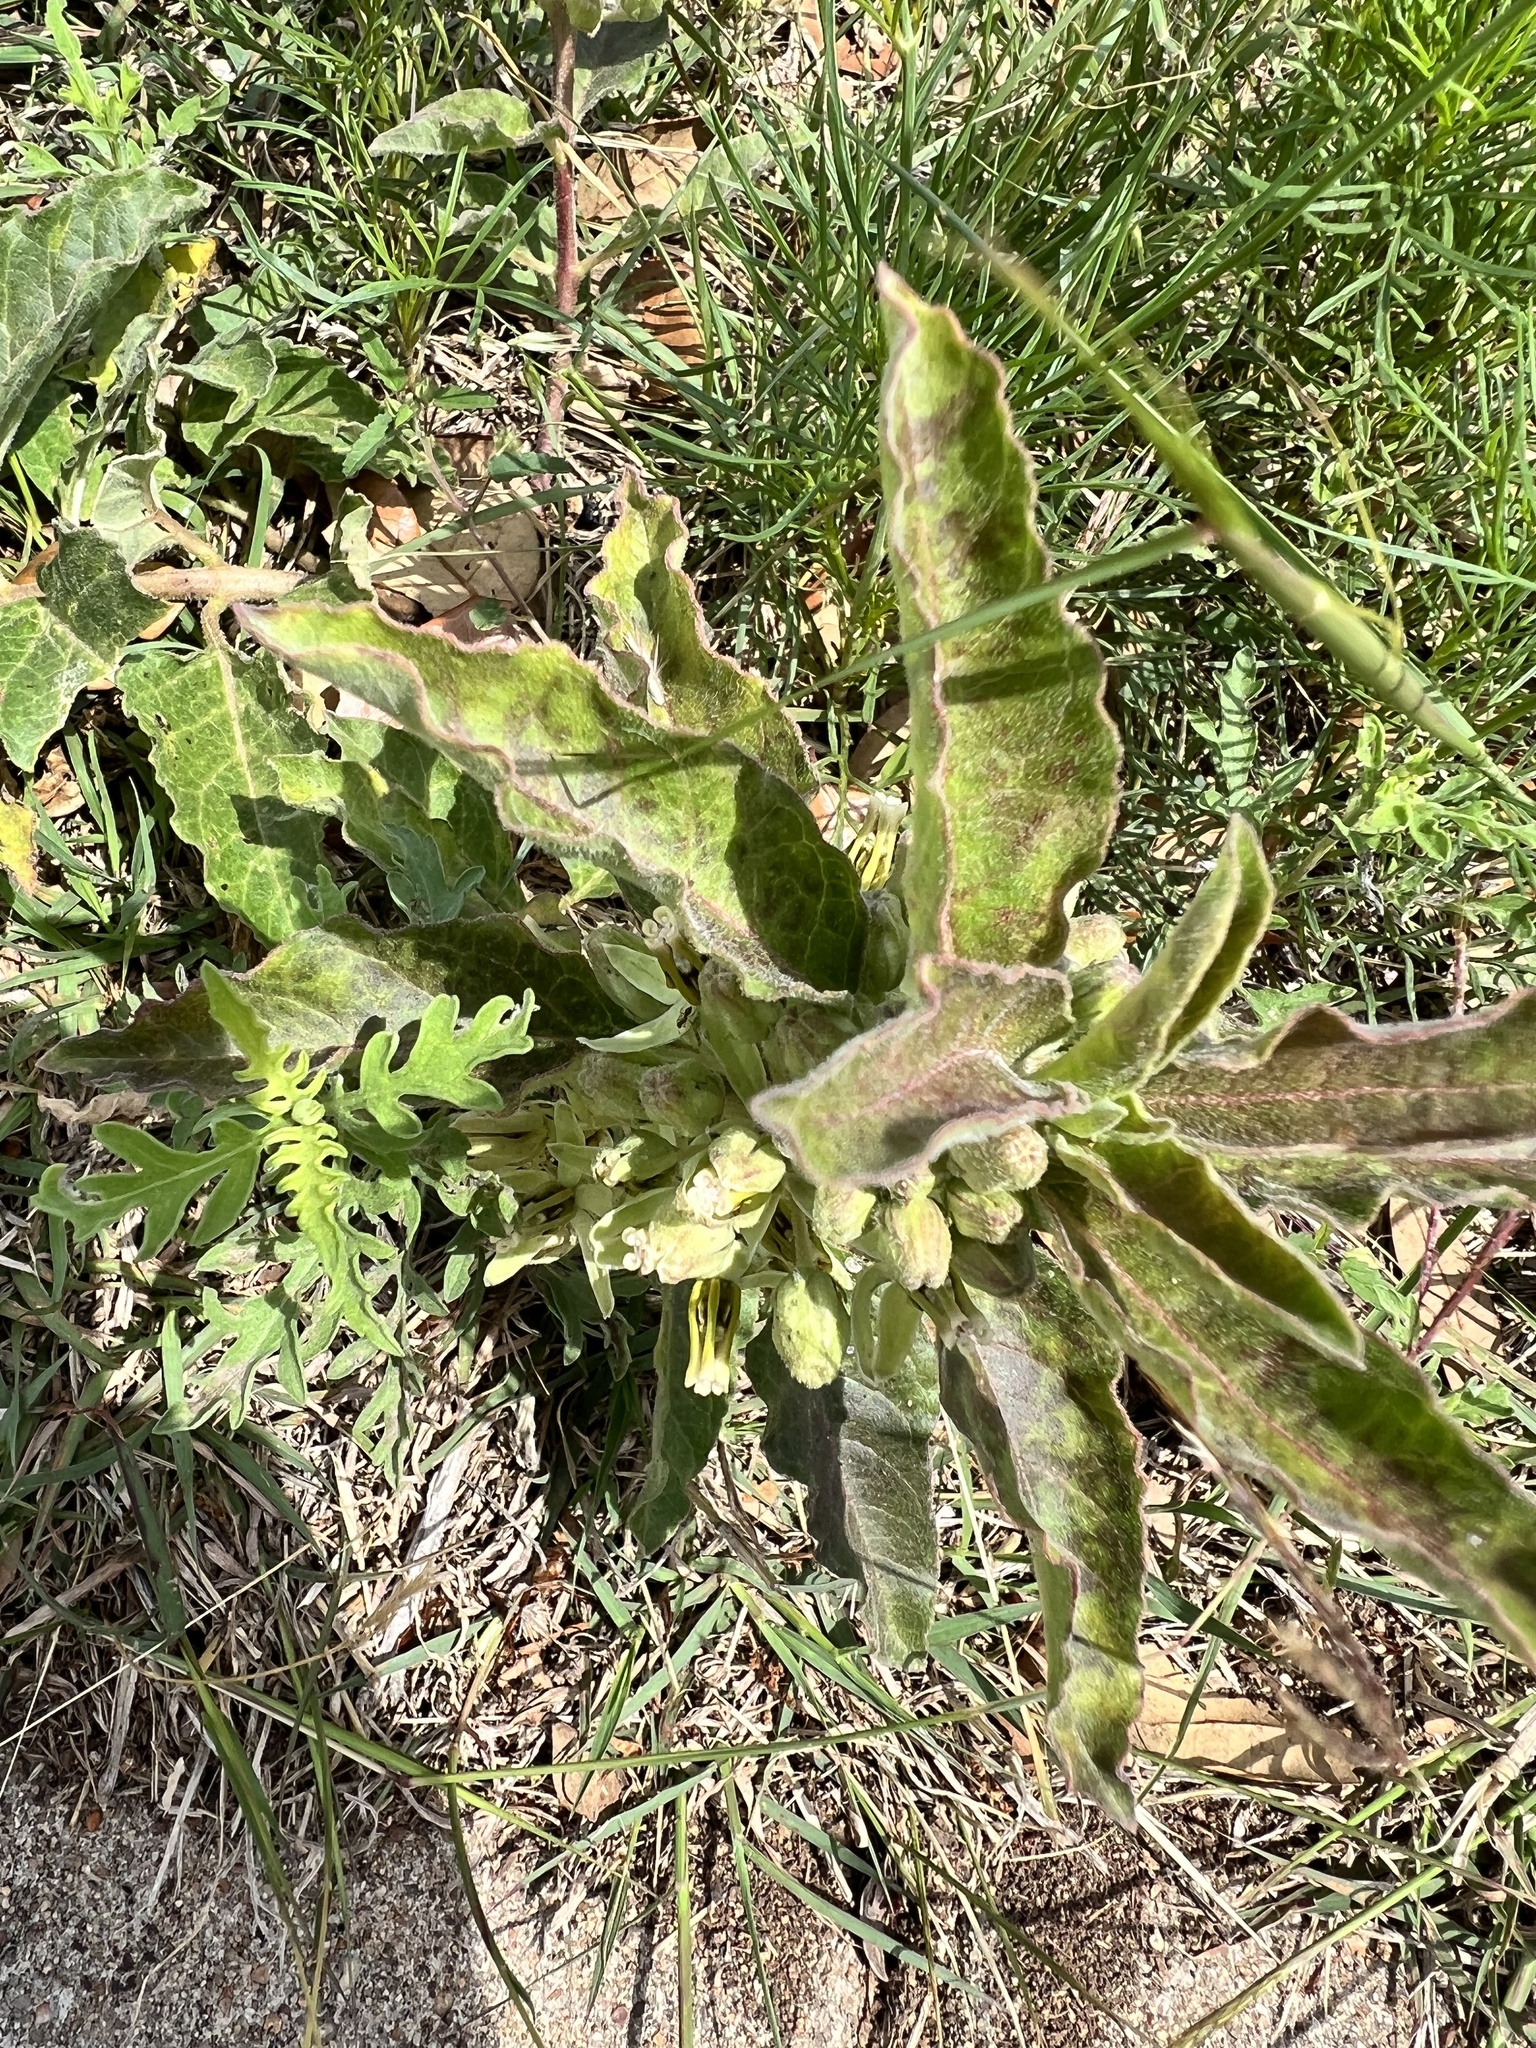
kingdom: Plantae
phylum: Tracheophyta
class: Magnoliopsida
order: Gentianales
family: Apocynaceae
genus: Asclepias
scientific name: Asclepias oenotheroides
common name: Zizotes milkweed
